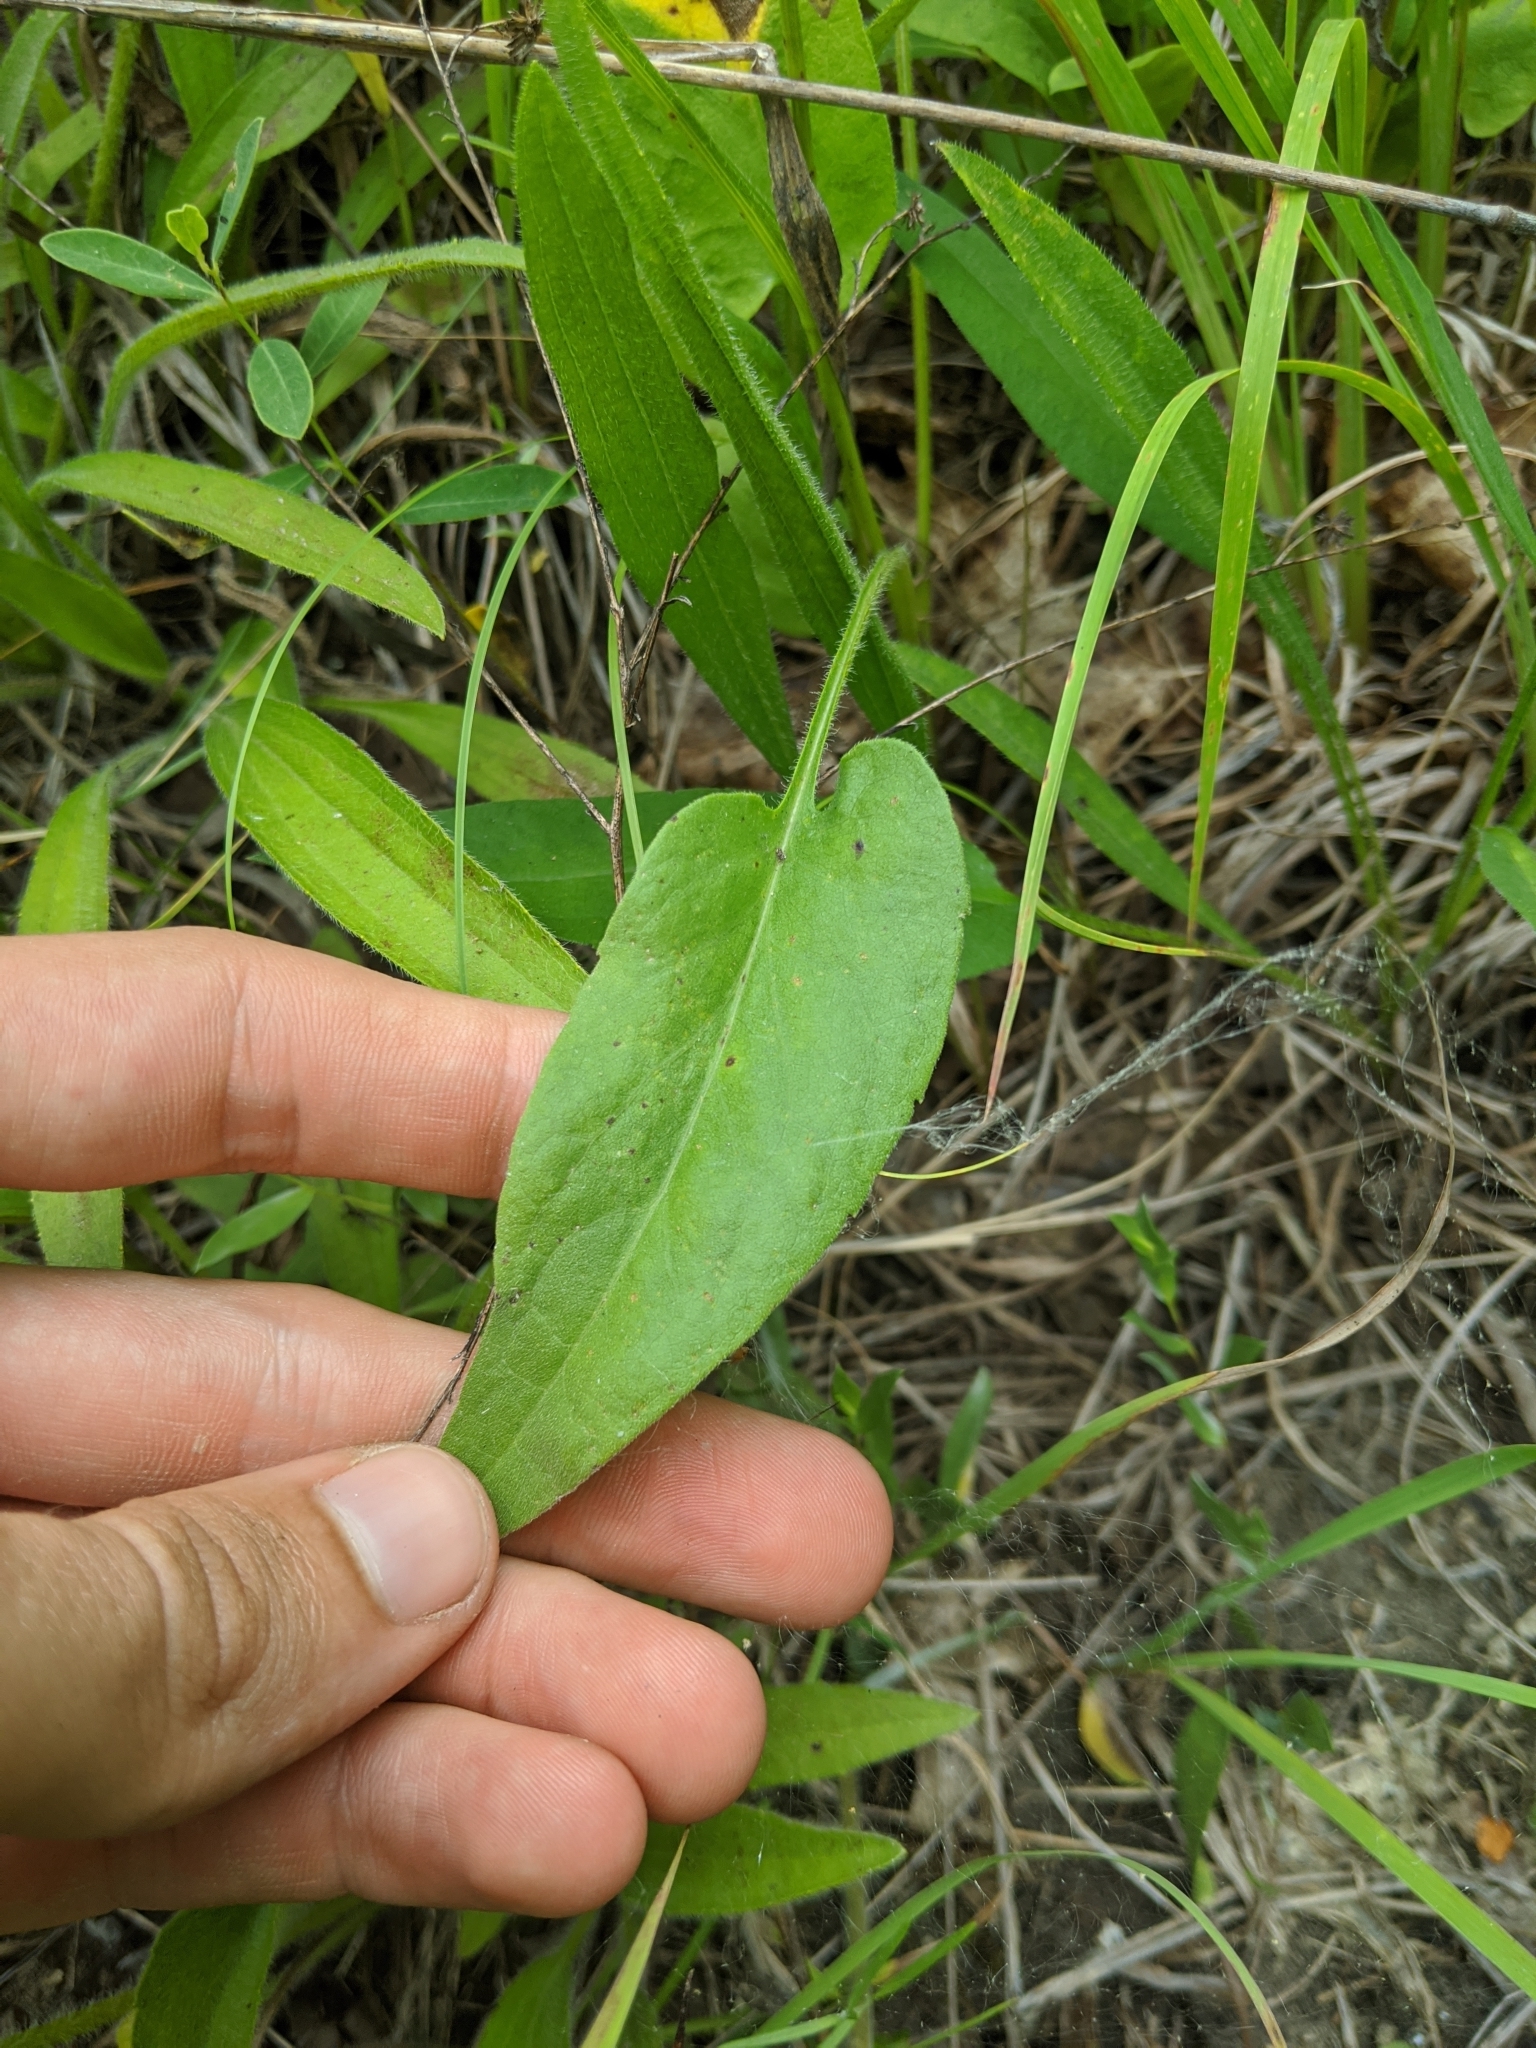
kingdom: Plantae
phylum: Tracheophyta
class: Magnoliopsida
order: Asterales
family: Asteraceae
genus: Symphyotrichum
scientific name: Symphyotrichum oolentangiense
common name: Azure aster
